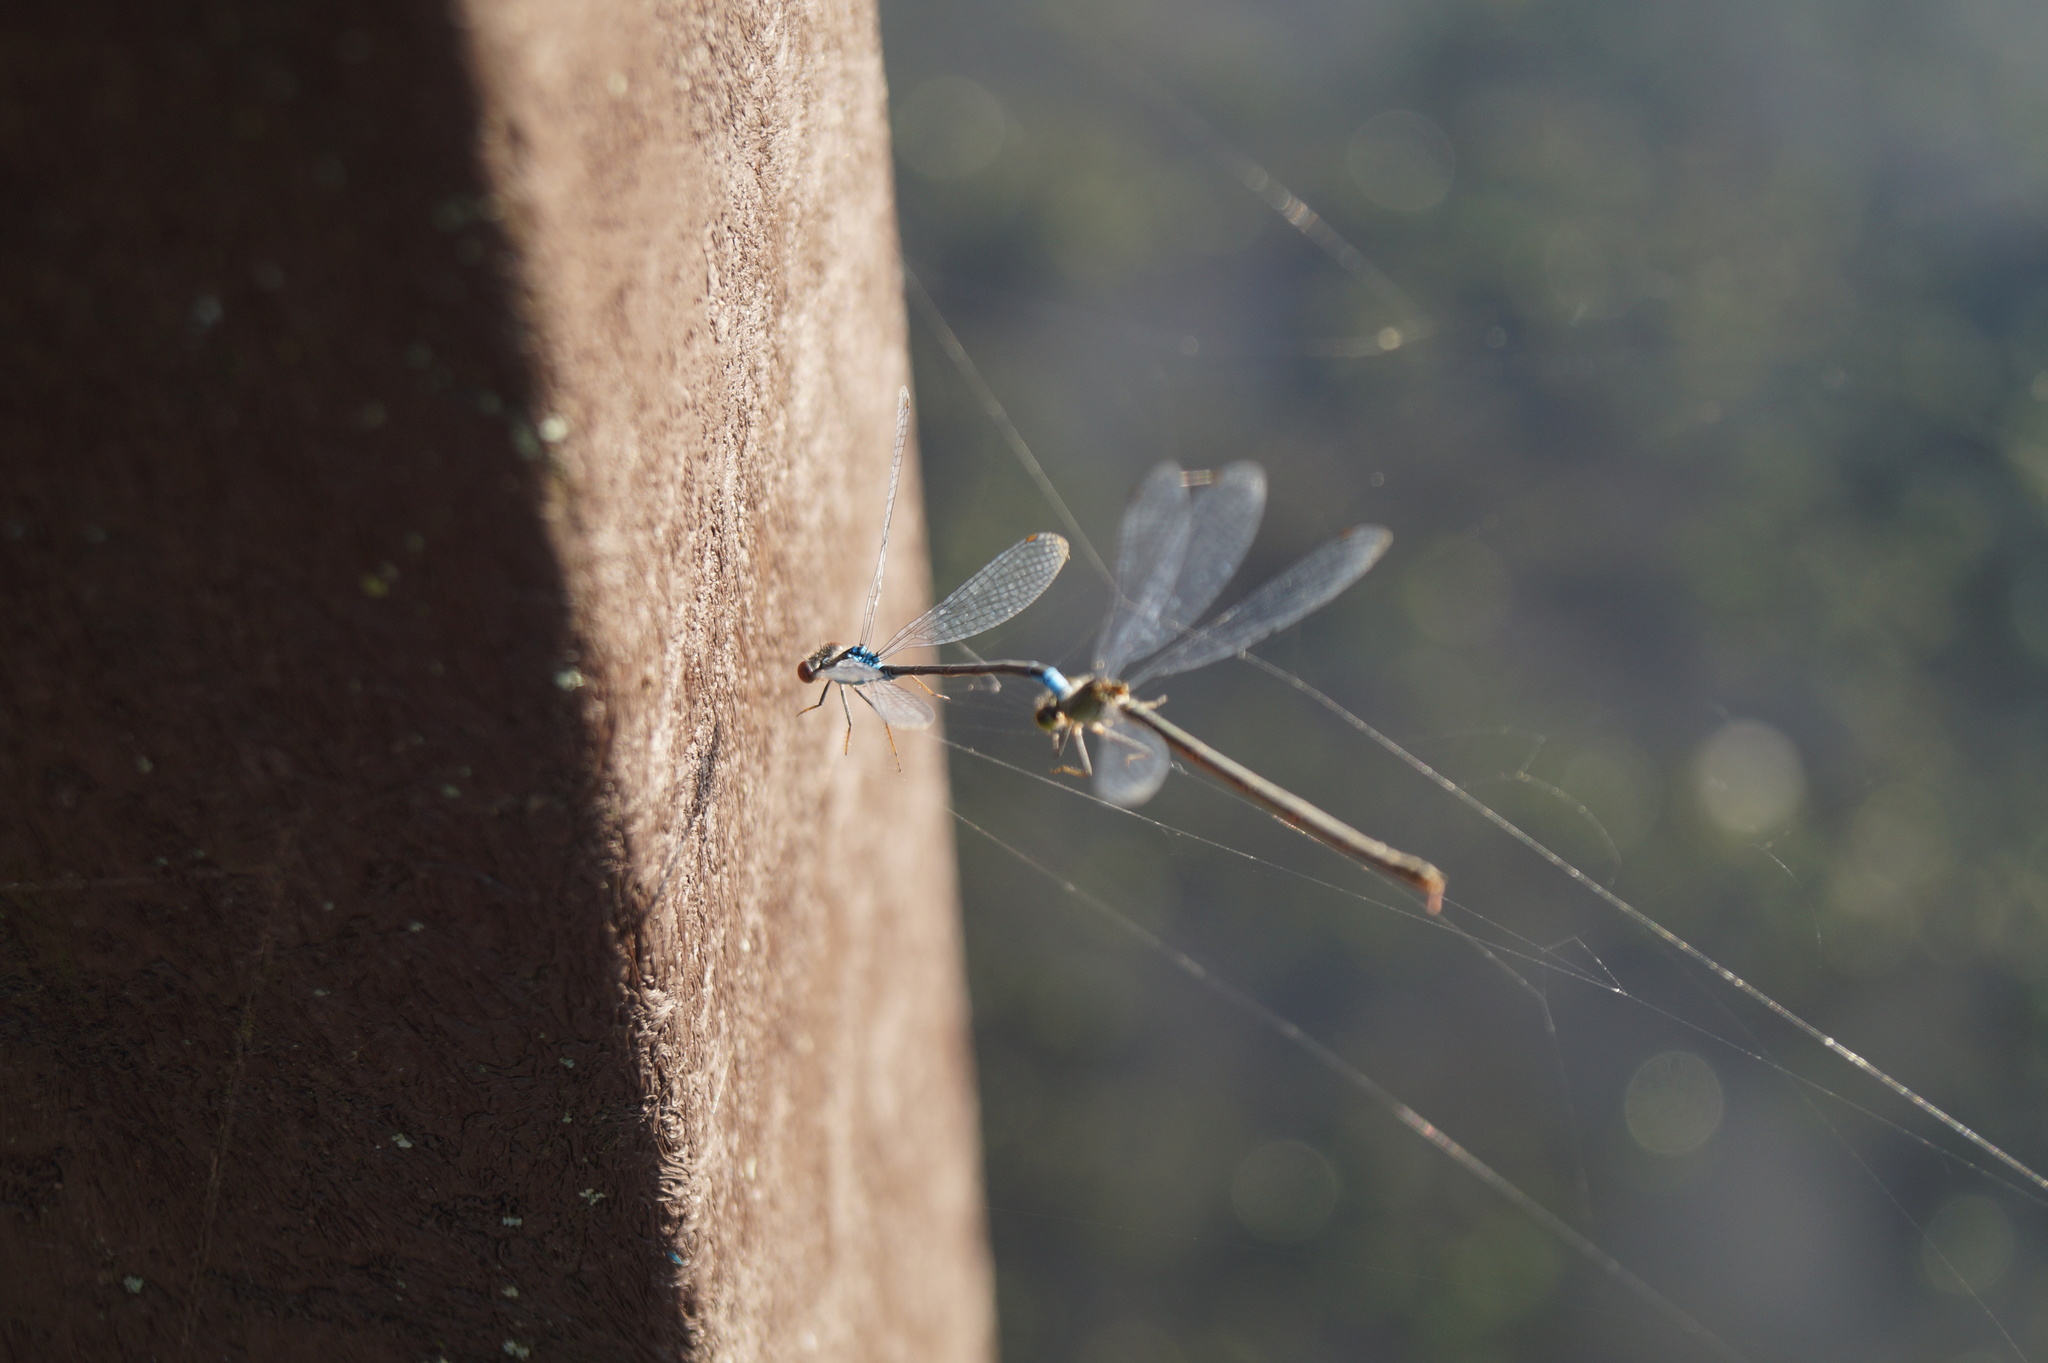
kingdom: Animalia
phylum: Arthropoda
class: Insecta
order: Odonata
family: Coenagrionidae
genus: Erythromma
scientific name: Erythromma viridulum
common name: Small red-eyed damselfly
